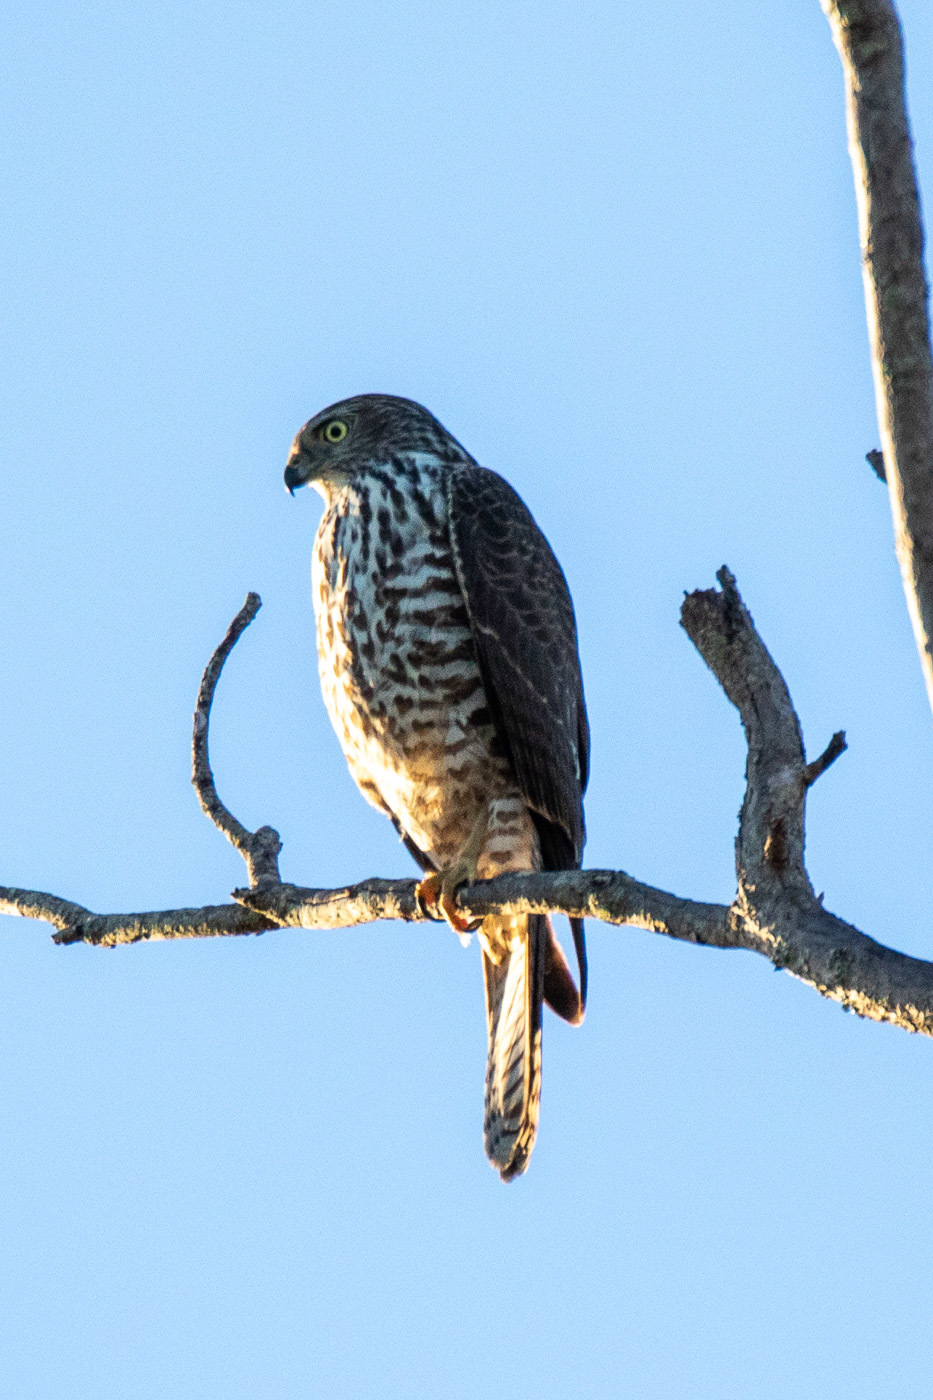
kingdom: Animalia
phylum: Chordata
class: Aves
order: Accipitriformes
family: Accipitridae
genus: Accipiter
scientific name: Accipiter fasciatus
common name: Brown goshawk
